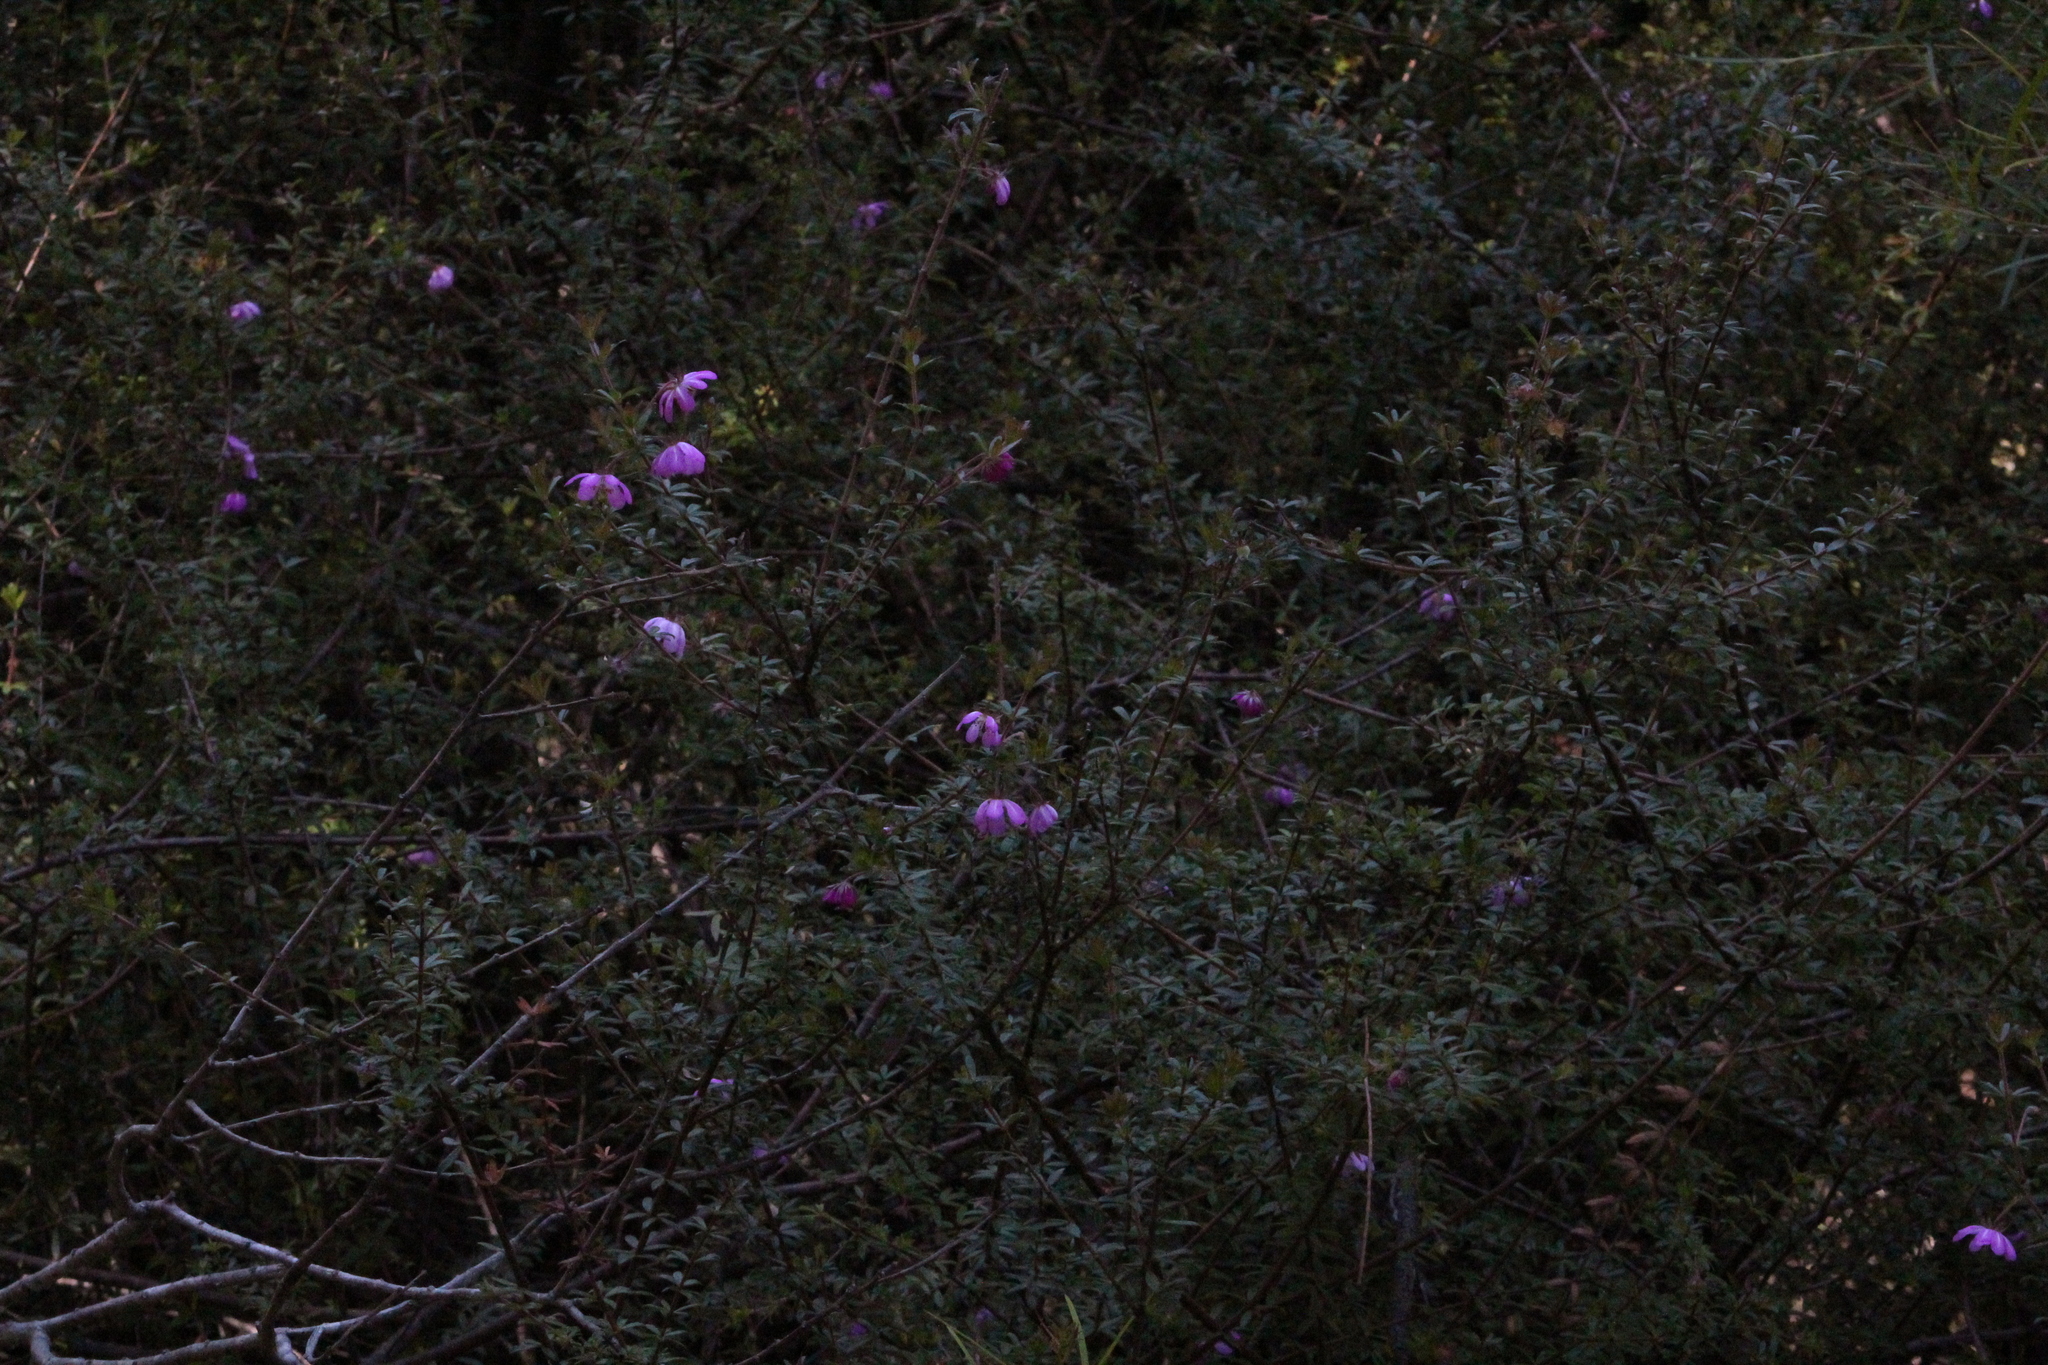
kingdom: Plantae
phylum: Tracheophyta
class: Magnoliopsida
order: Oxalidales
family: Cunoniaceae
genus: Bauera
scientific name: Bauera rubioides
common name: River-rose
